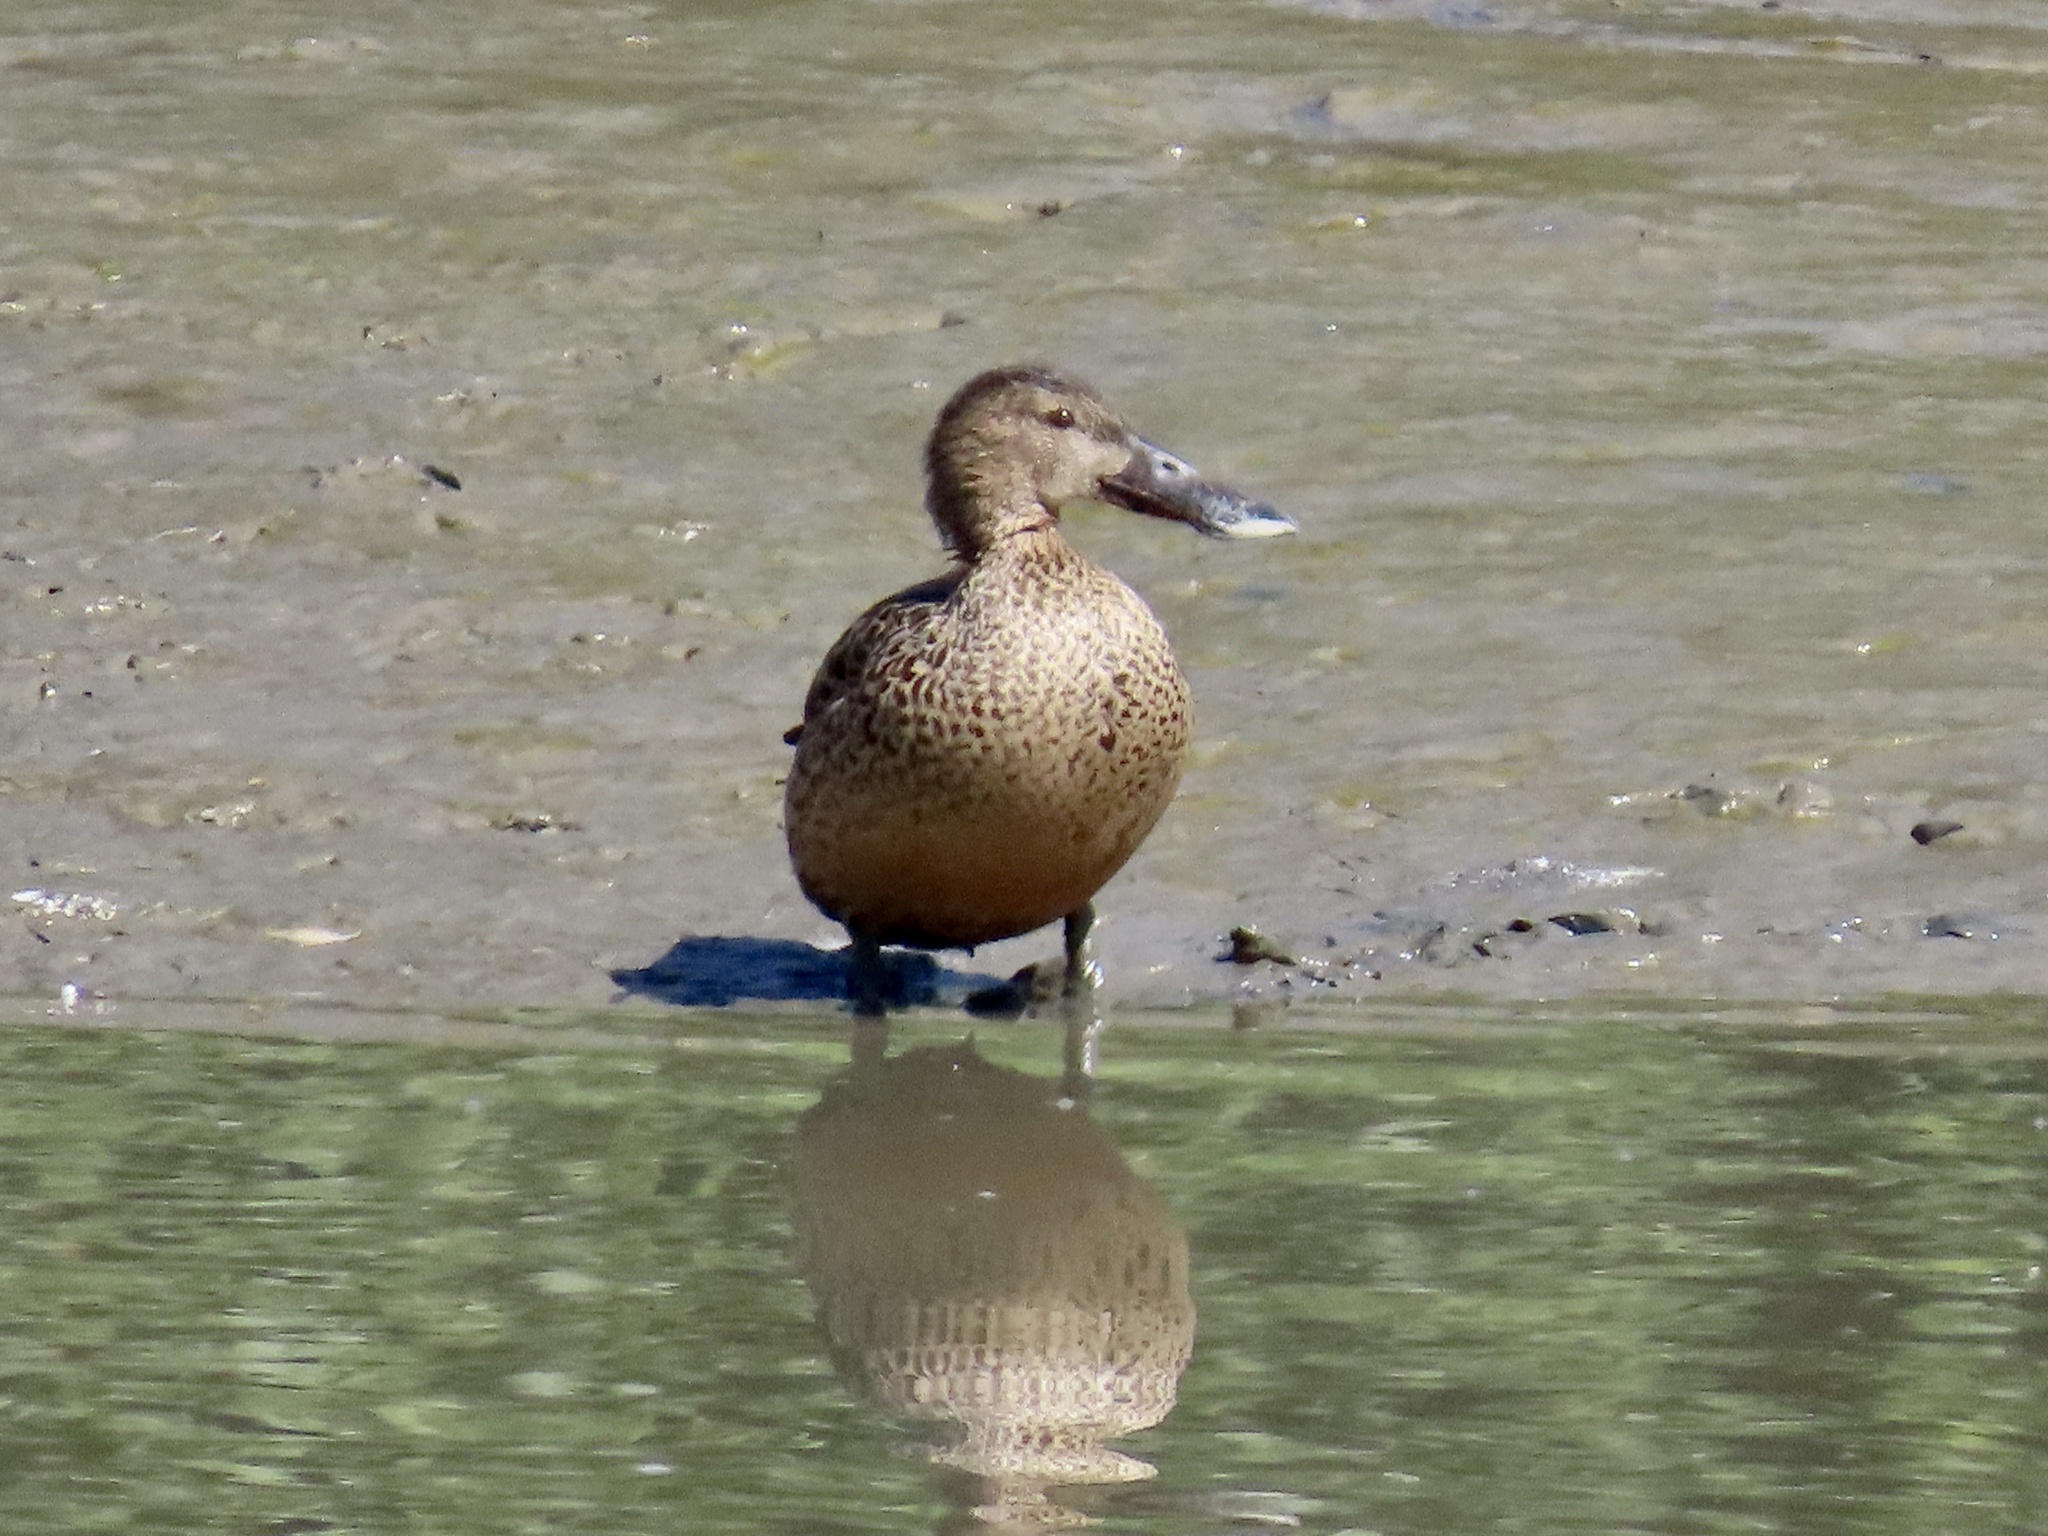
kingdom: Animalia
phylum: Chordata
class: Aves
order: Anseriformes
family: Anatidae
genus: Spatula
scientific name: Spatula clypeata
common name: Northern shoveler
